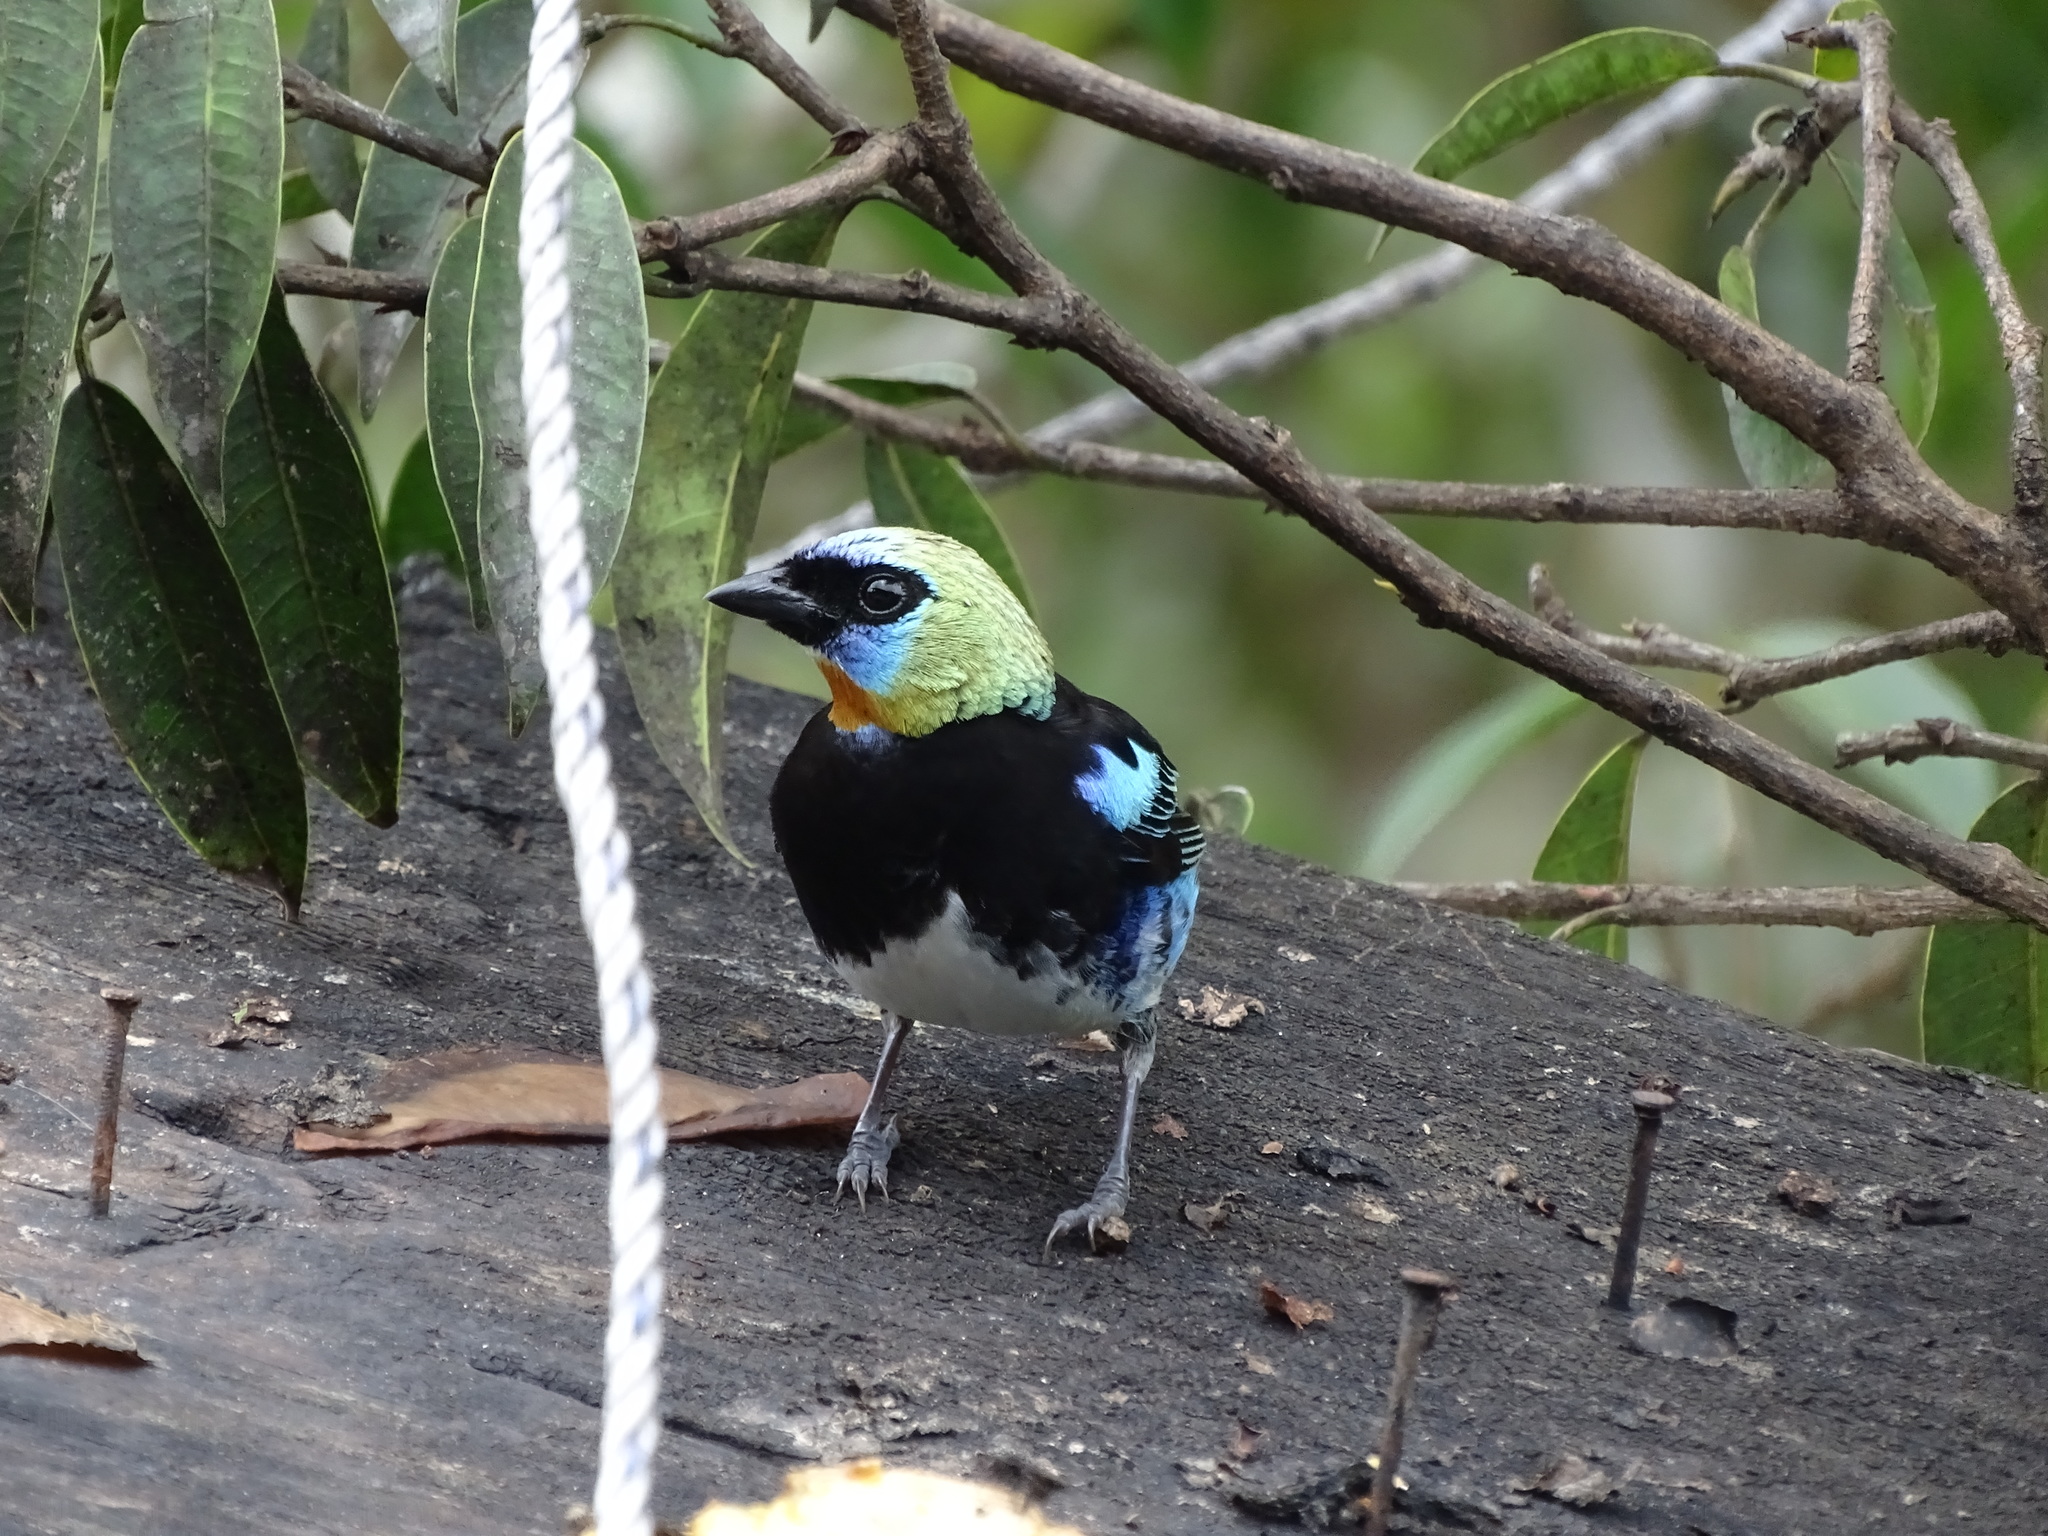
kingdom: Animalia
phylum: Chordata
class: Aves
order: Passeriformes
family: Thraupidae
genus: Stilpnia
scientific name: Stilpnia larvata
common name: Golden-hooded tanager
